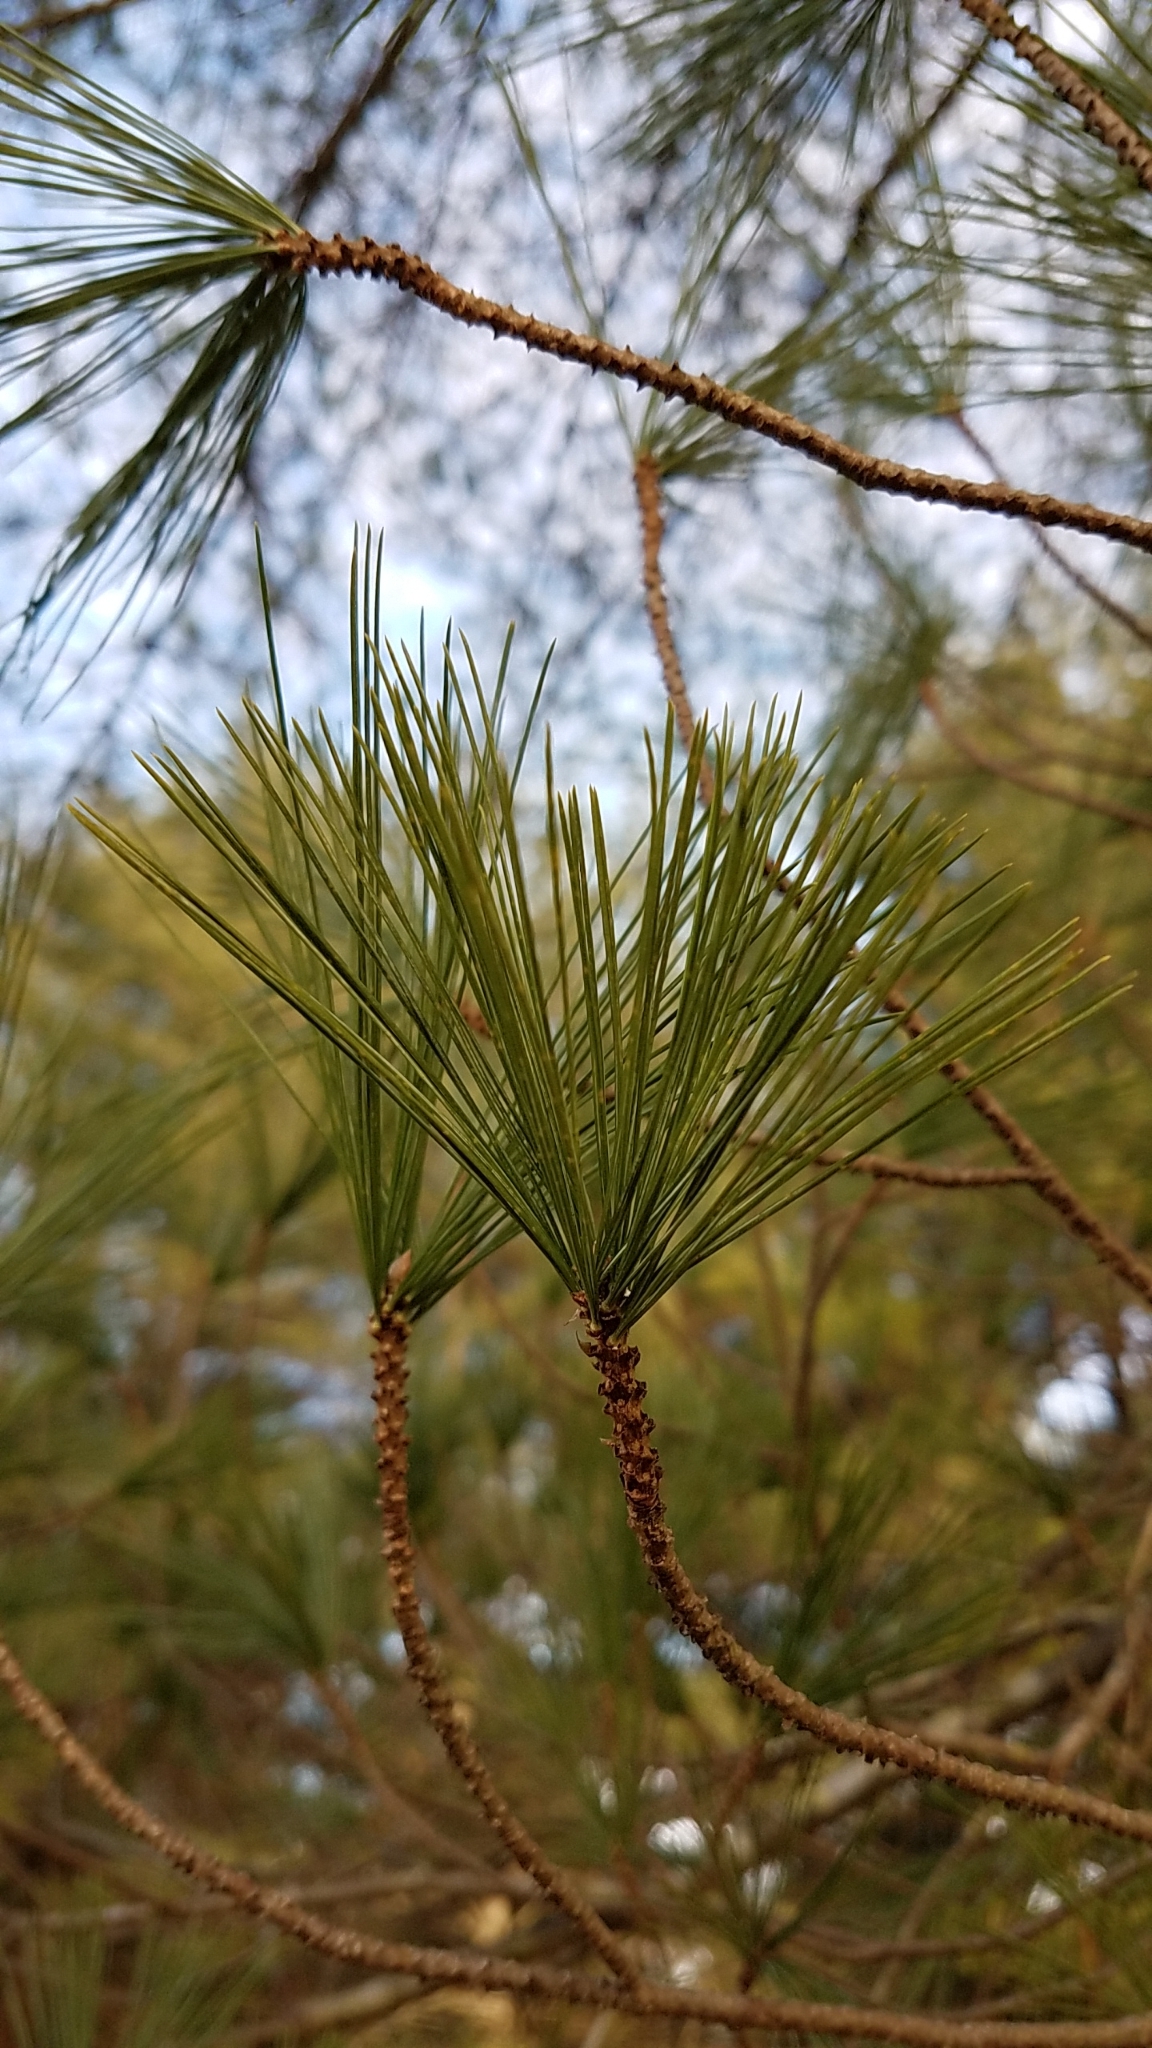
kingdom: Plantae
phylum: Tracheophyta
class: Pinopsida
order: Pinales
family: Pinaceae
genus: Pinus
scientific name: Pinus strobus
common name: Weymouth pine
